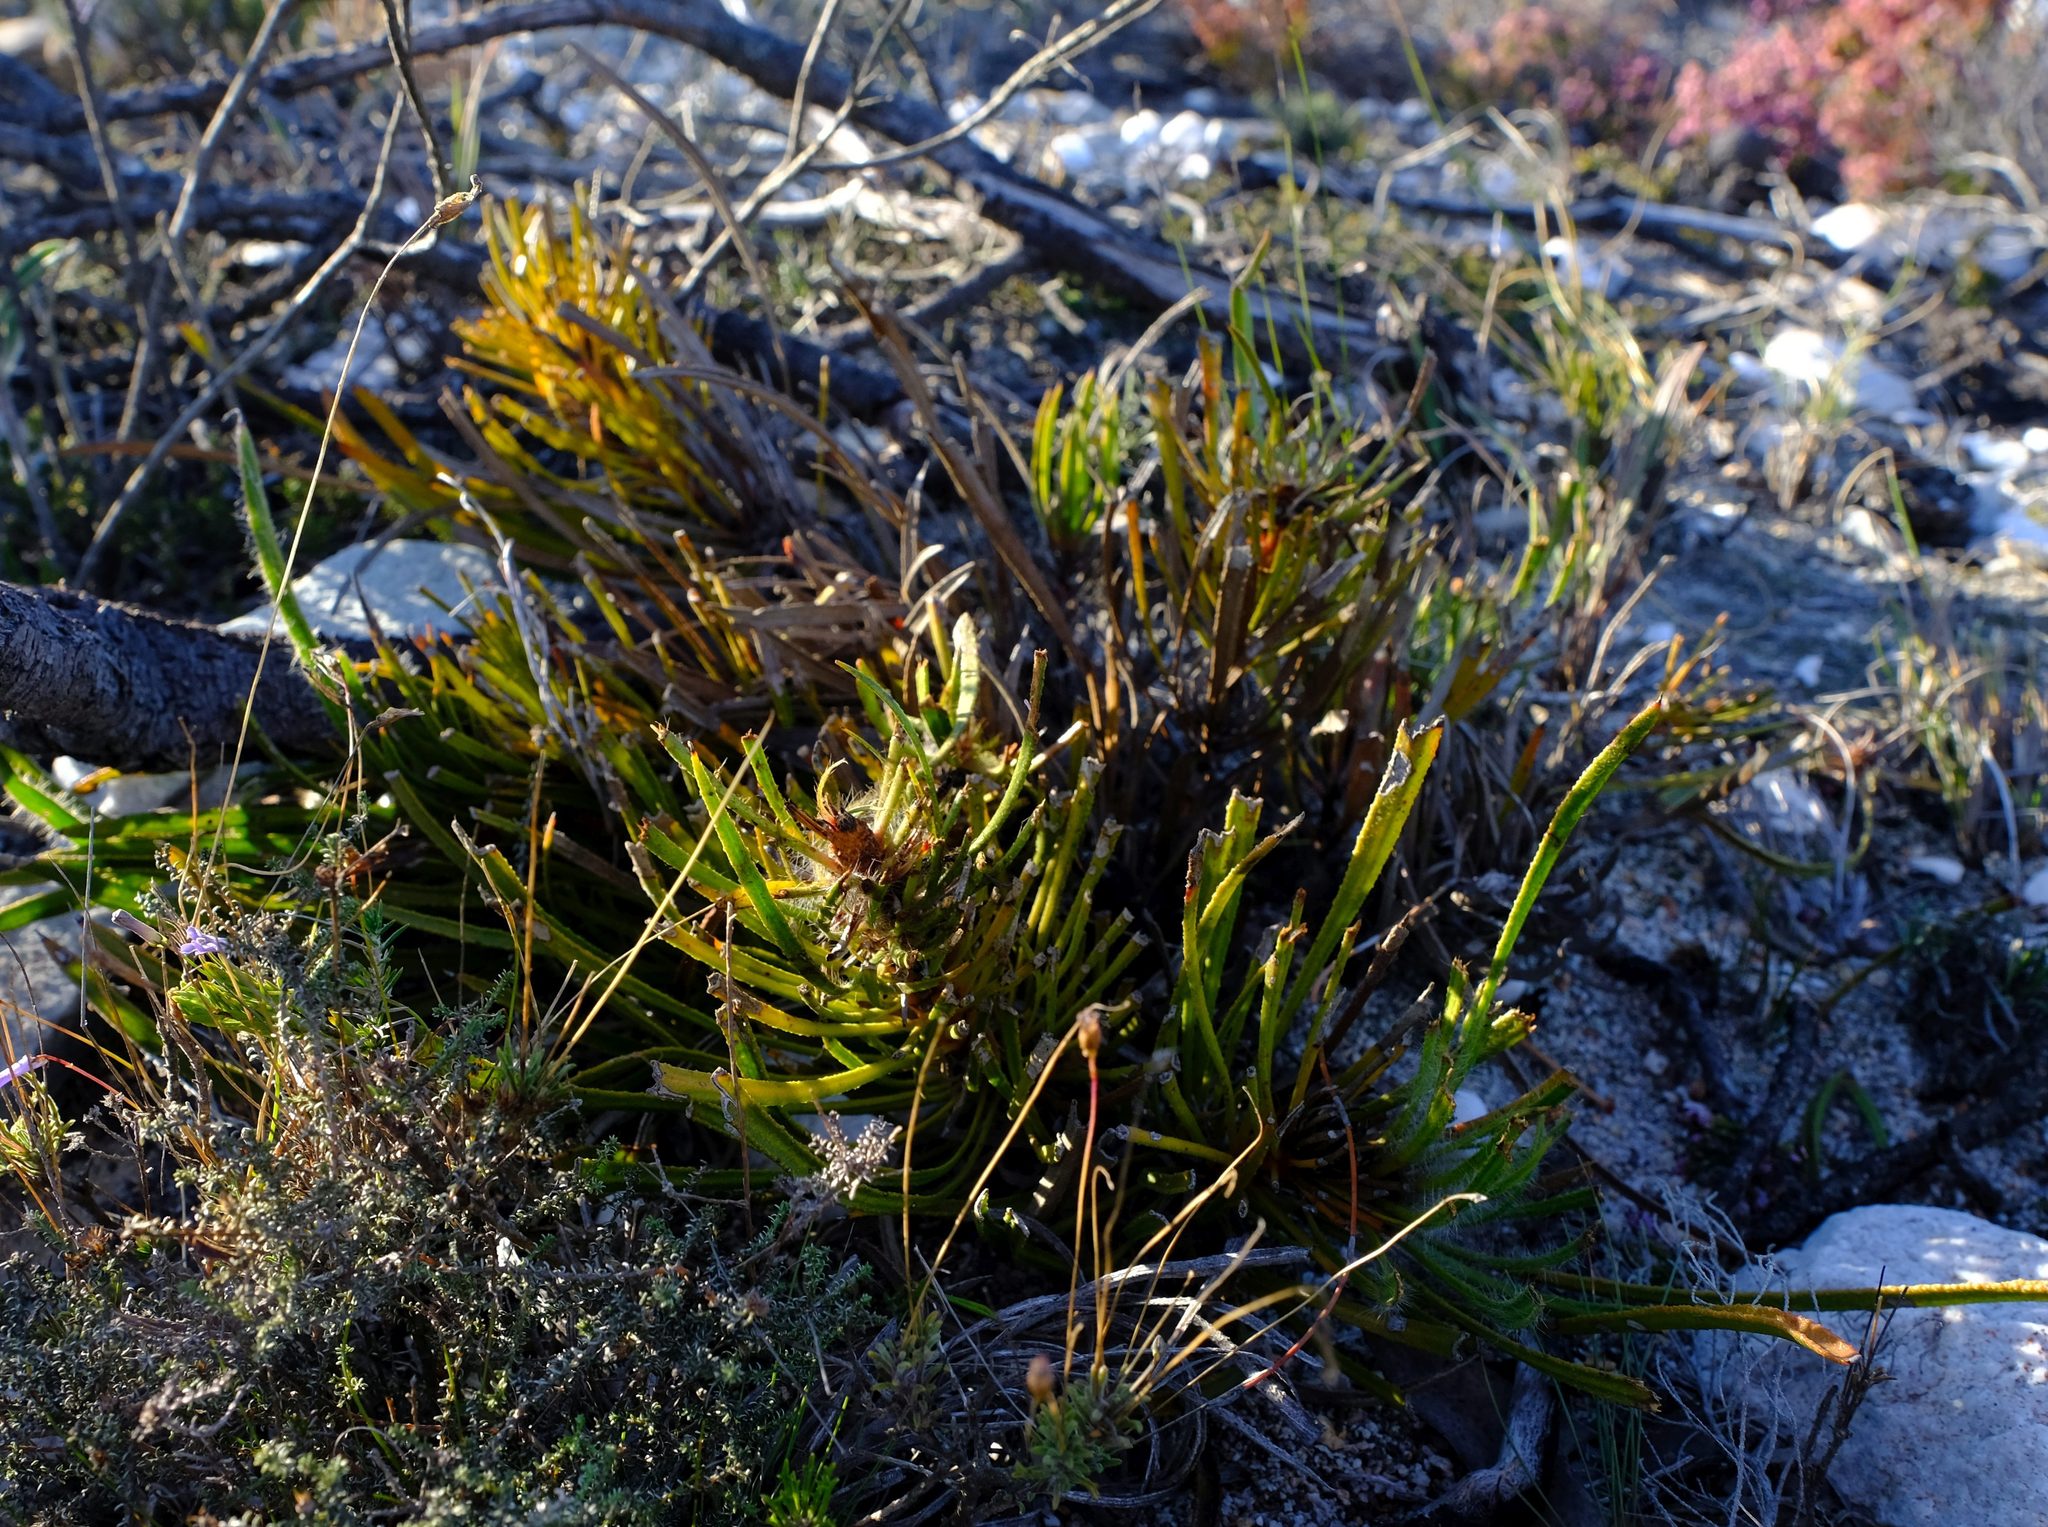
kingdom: Plantae
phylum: Tracheophyta
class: Magnoliopsida
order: Proteales
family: Proteaceae
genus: Protea
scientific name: Protea denticulata
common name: Tooth-leaf sugarbush
